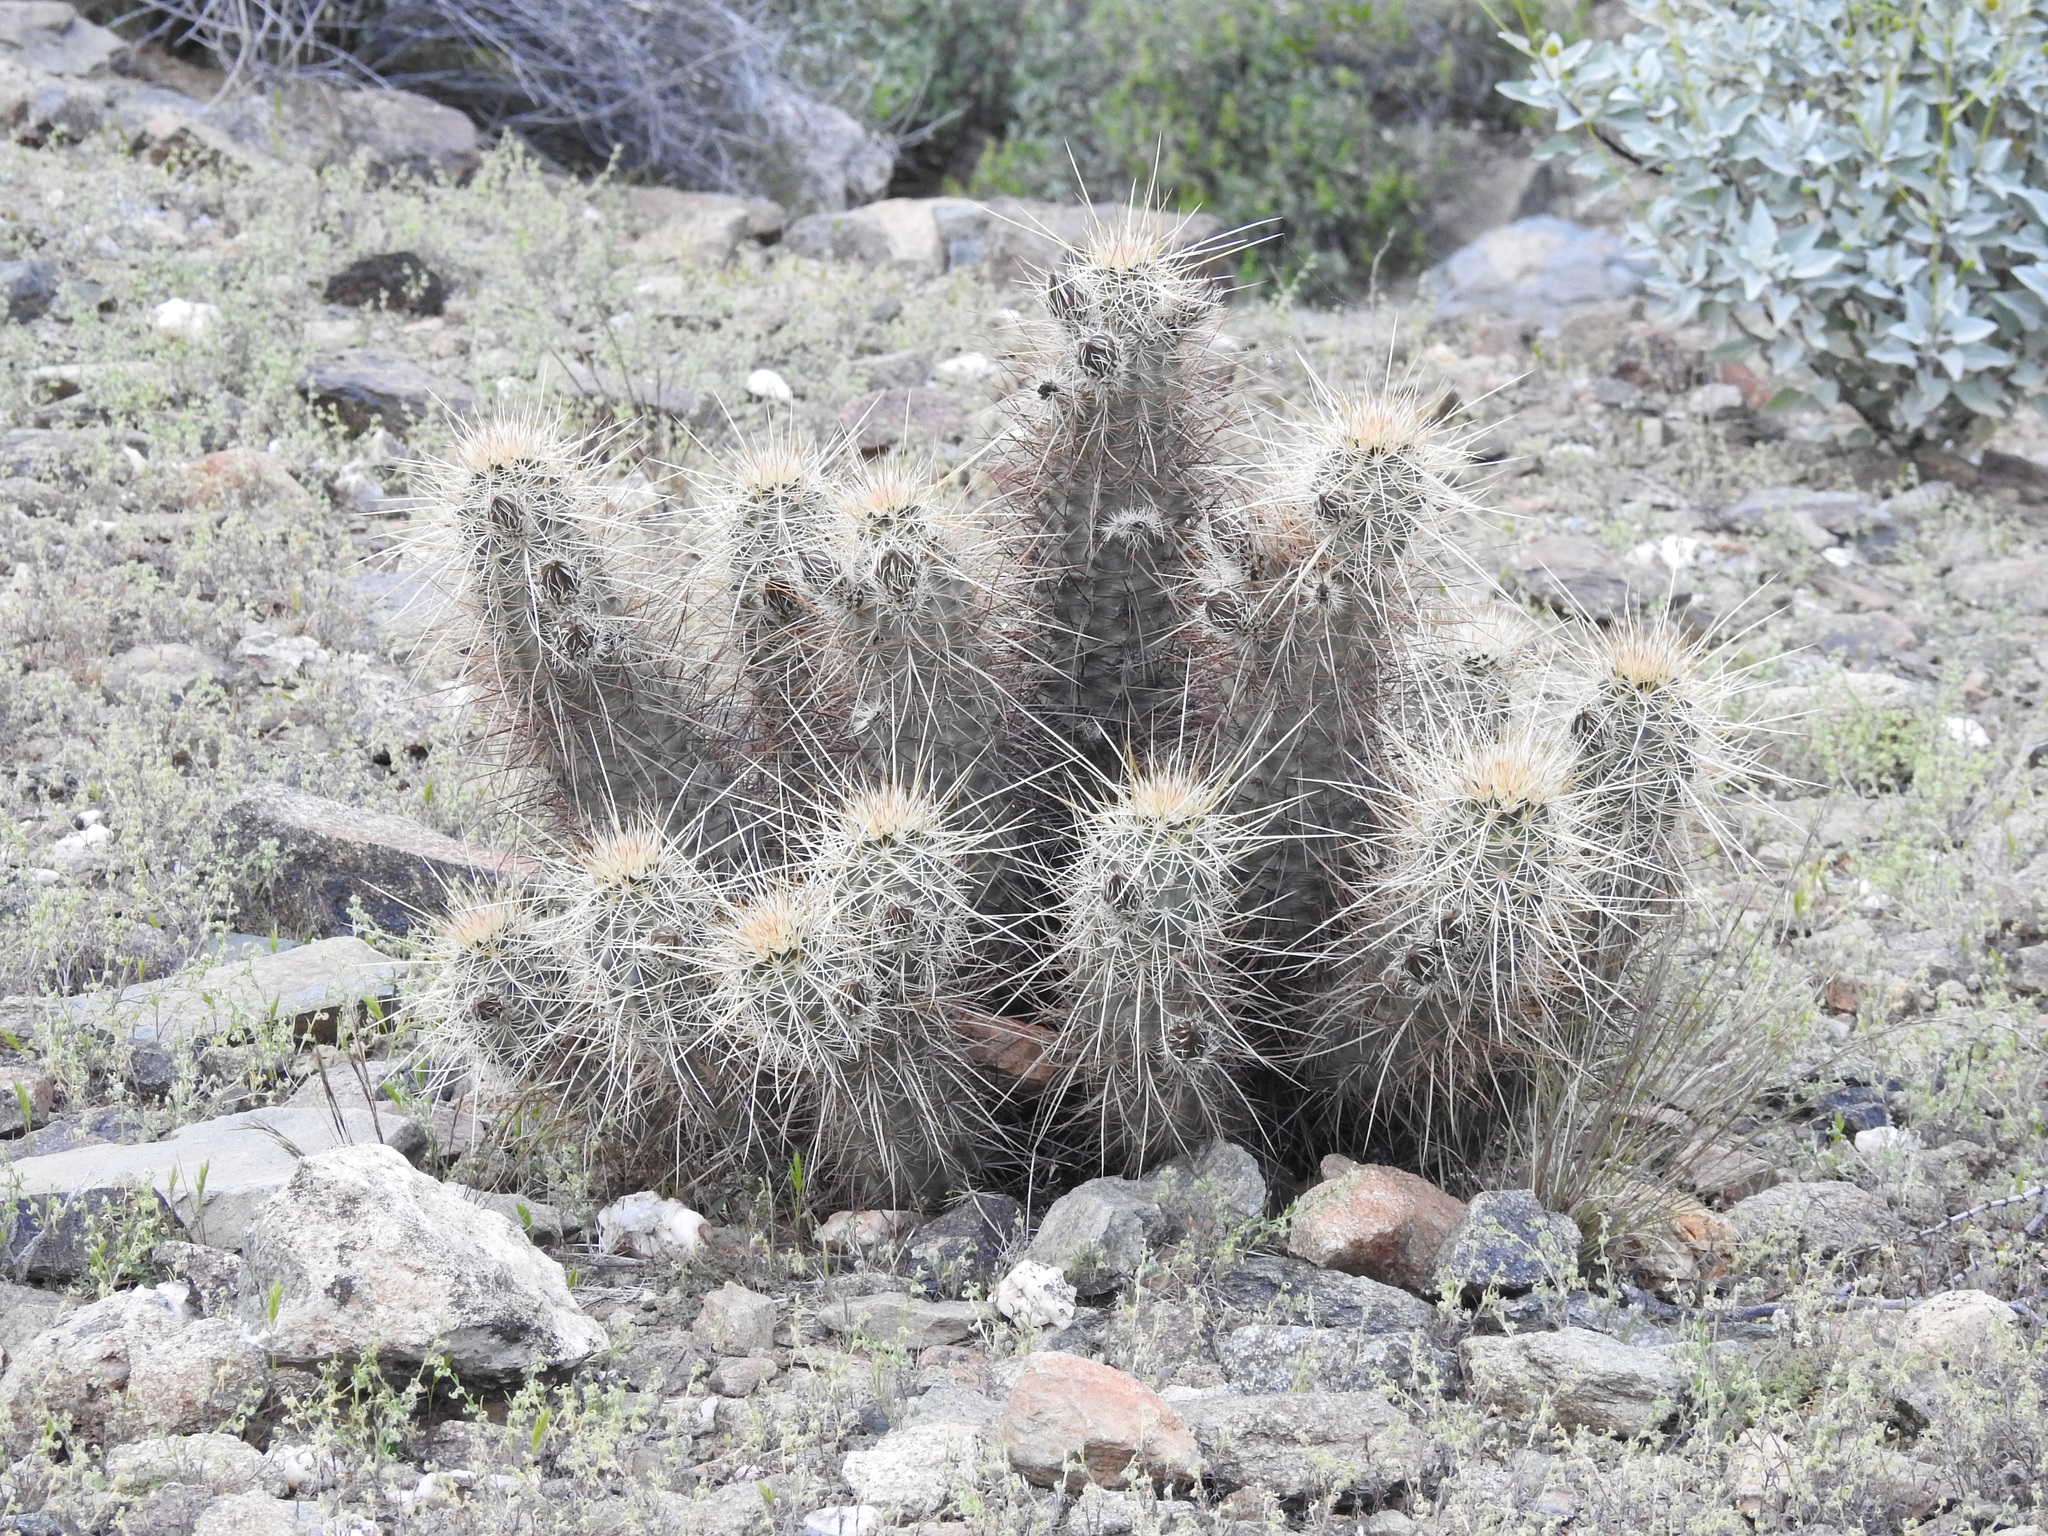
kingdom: Plantae
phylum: Tracheophyta
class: Magnoliopsida
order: Caryophyllales
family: Cactaceae
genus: Echinocereus
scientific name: Echinocereus engelmannii
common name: Engelmann's hedgehog cactus
